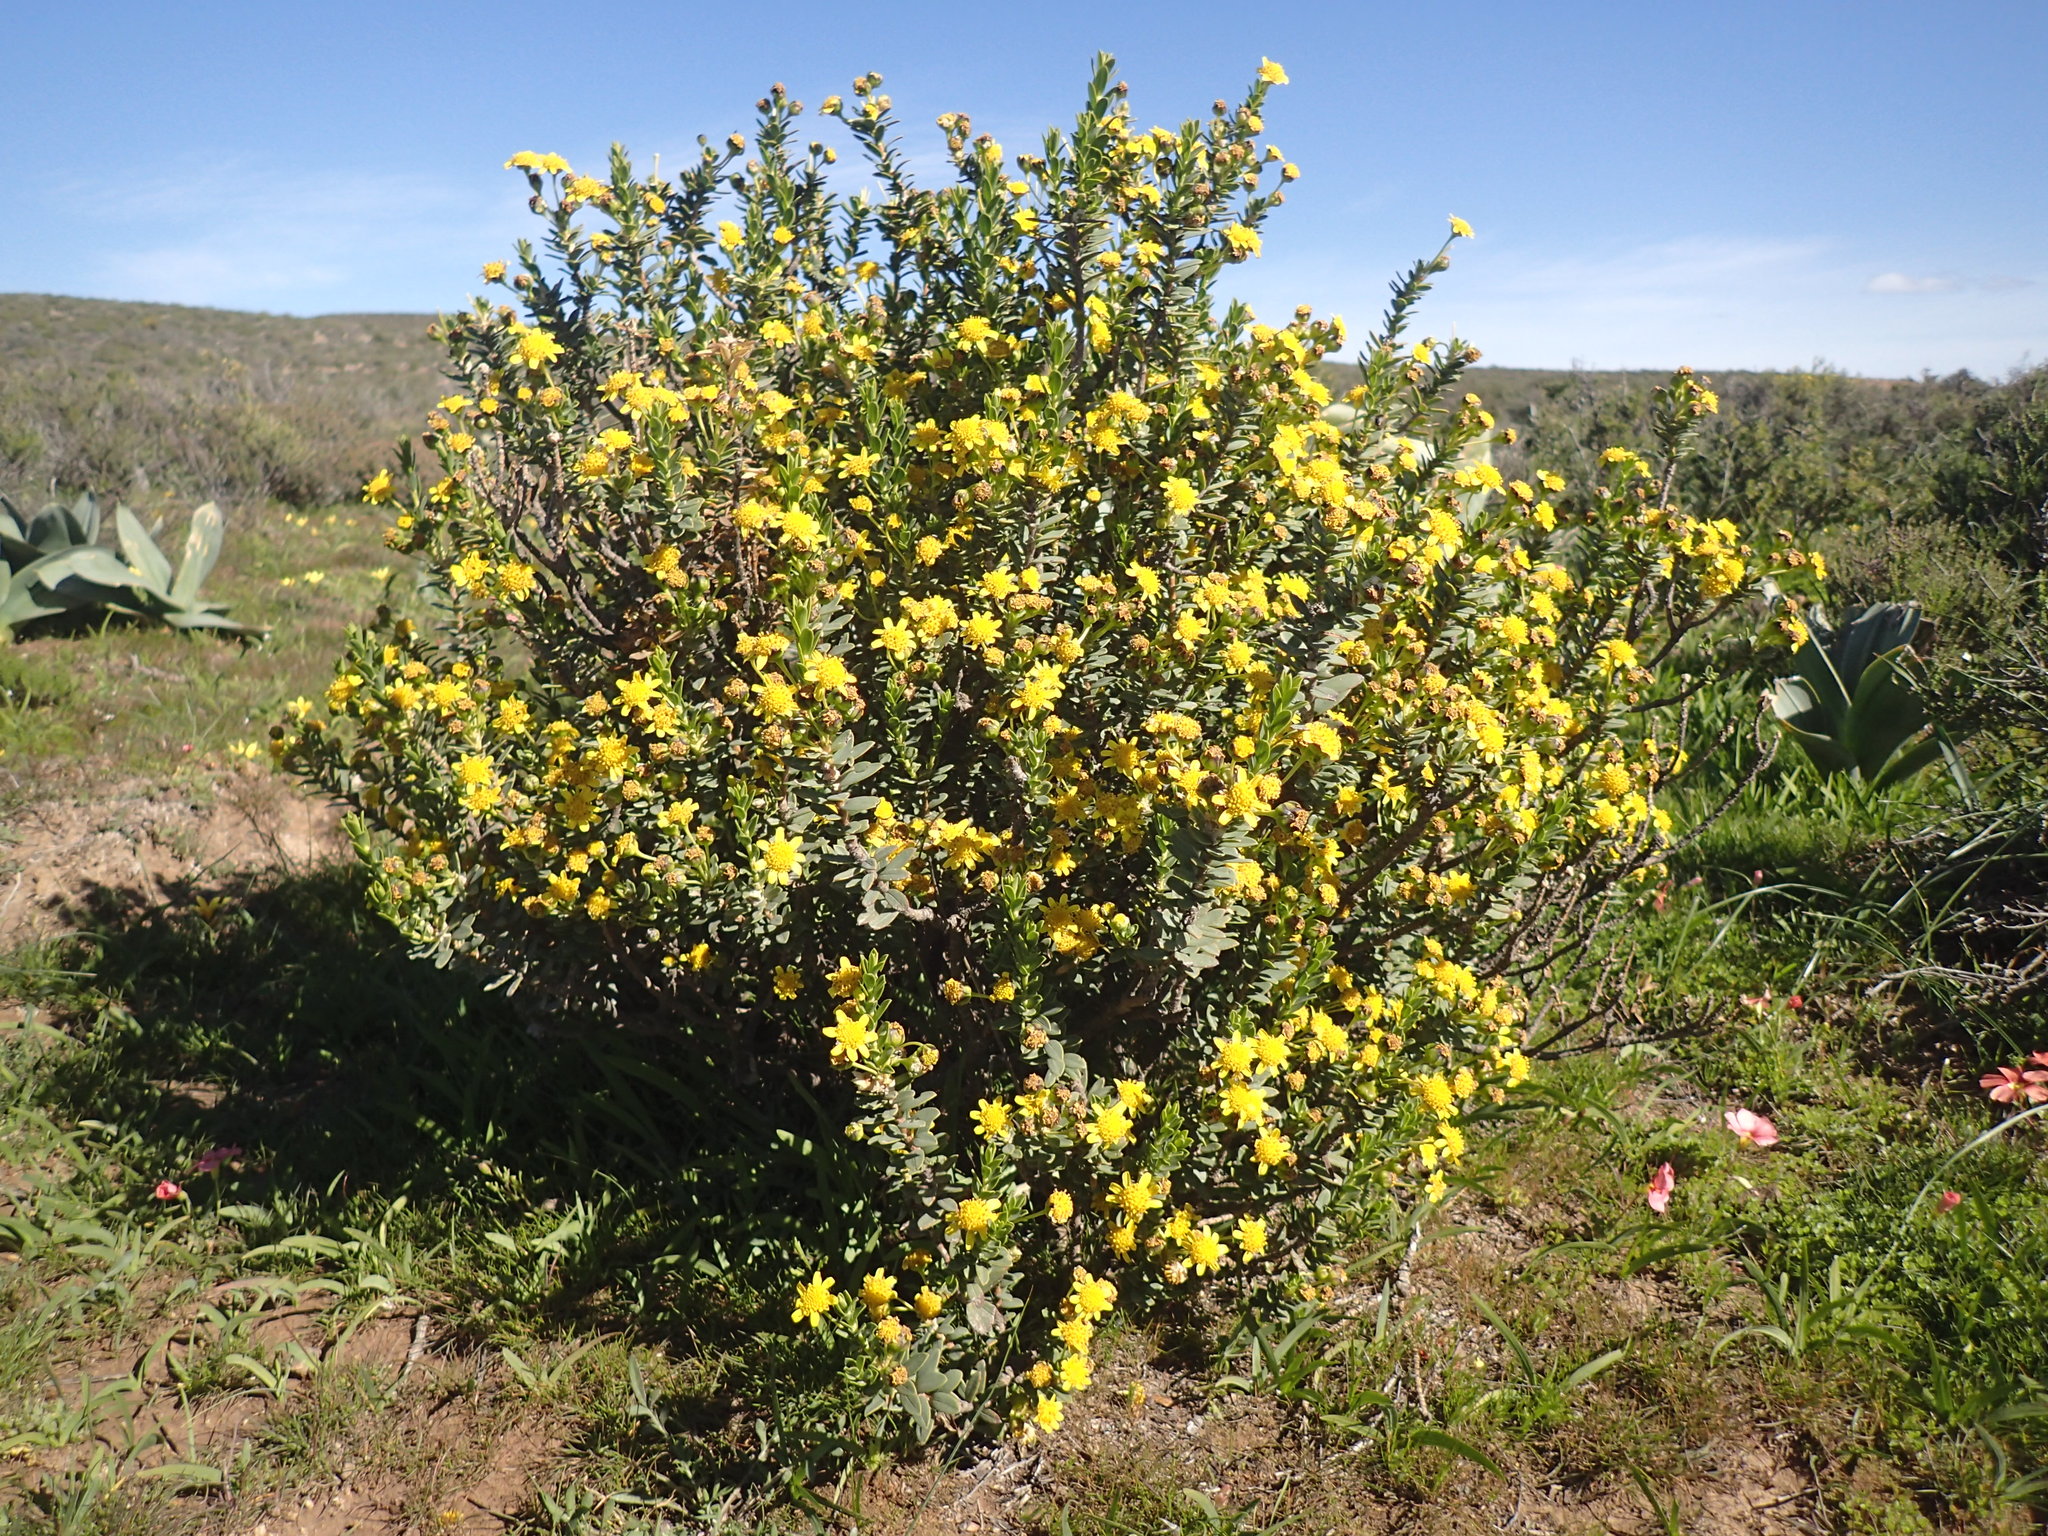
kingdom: Plantae
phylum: Tracheophyta
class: Magnoliopsida
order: Asterales
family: Asteraceae
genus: Euryops
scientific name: Euryops lateriflorus
